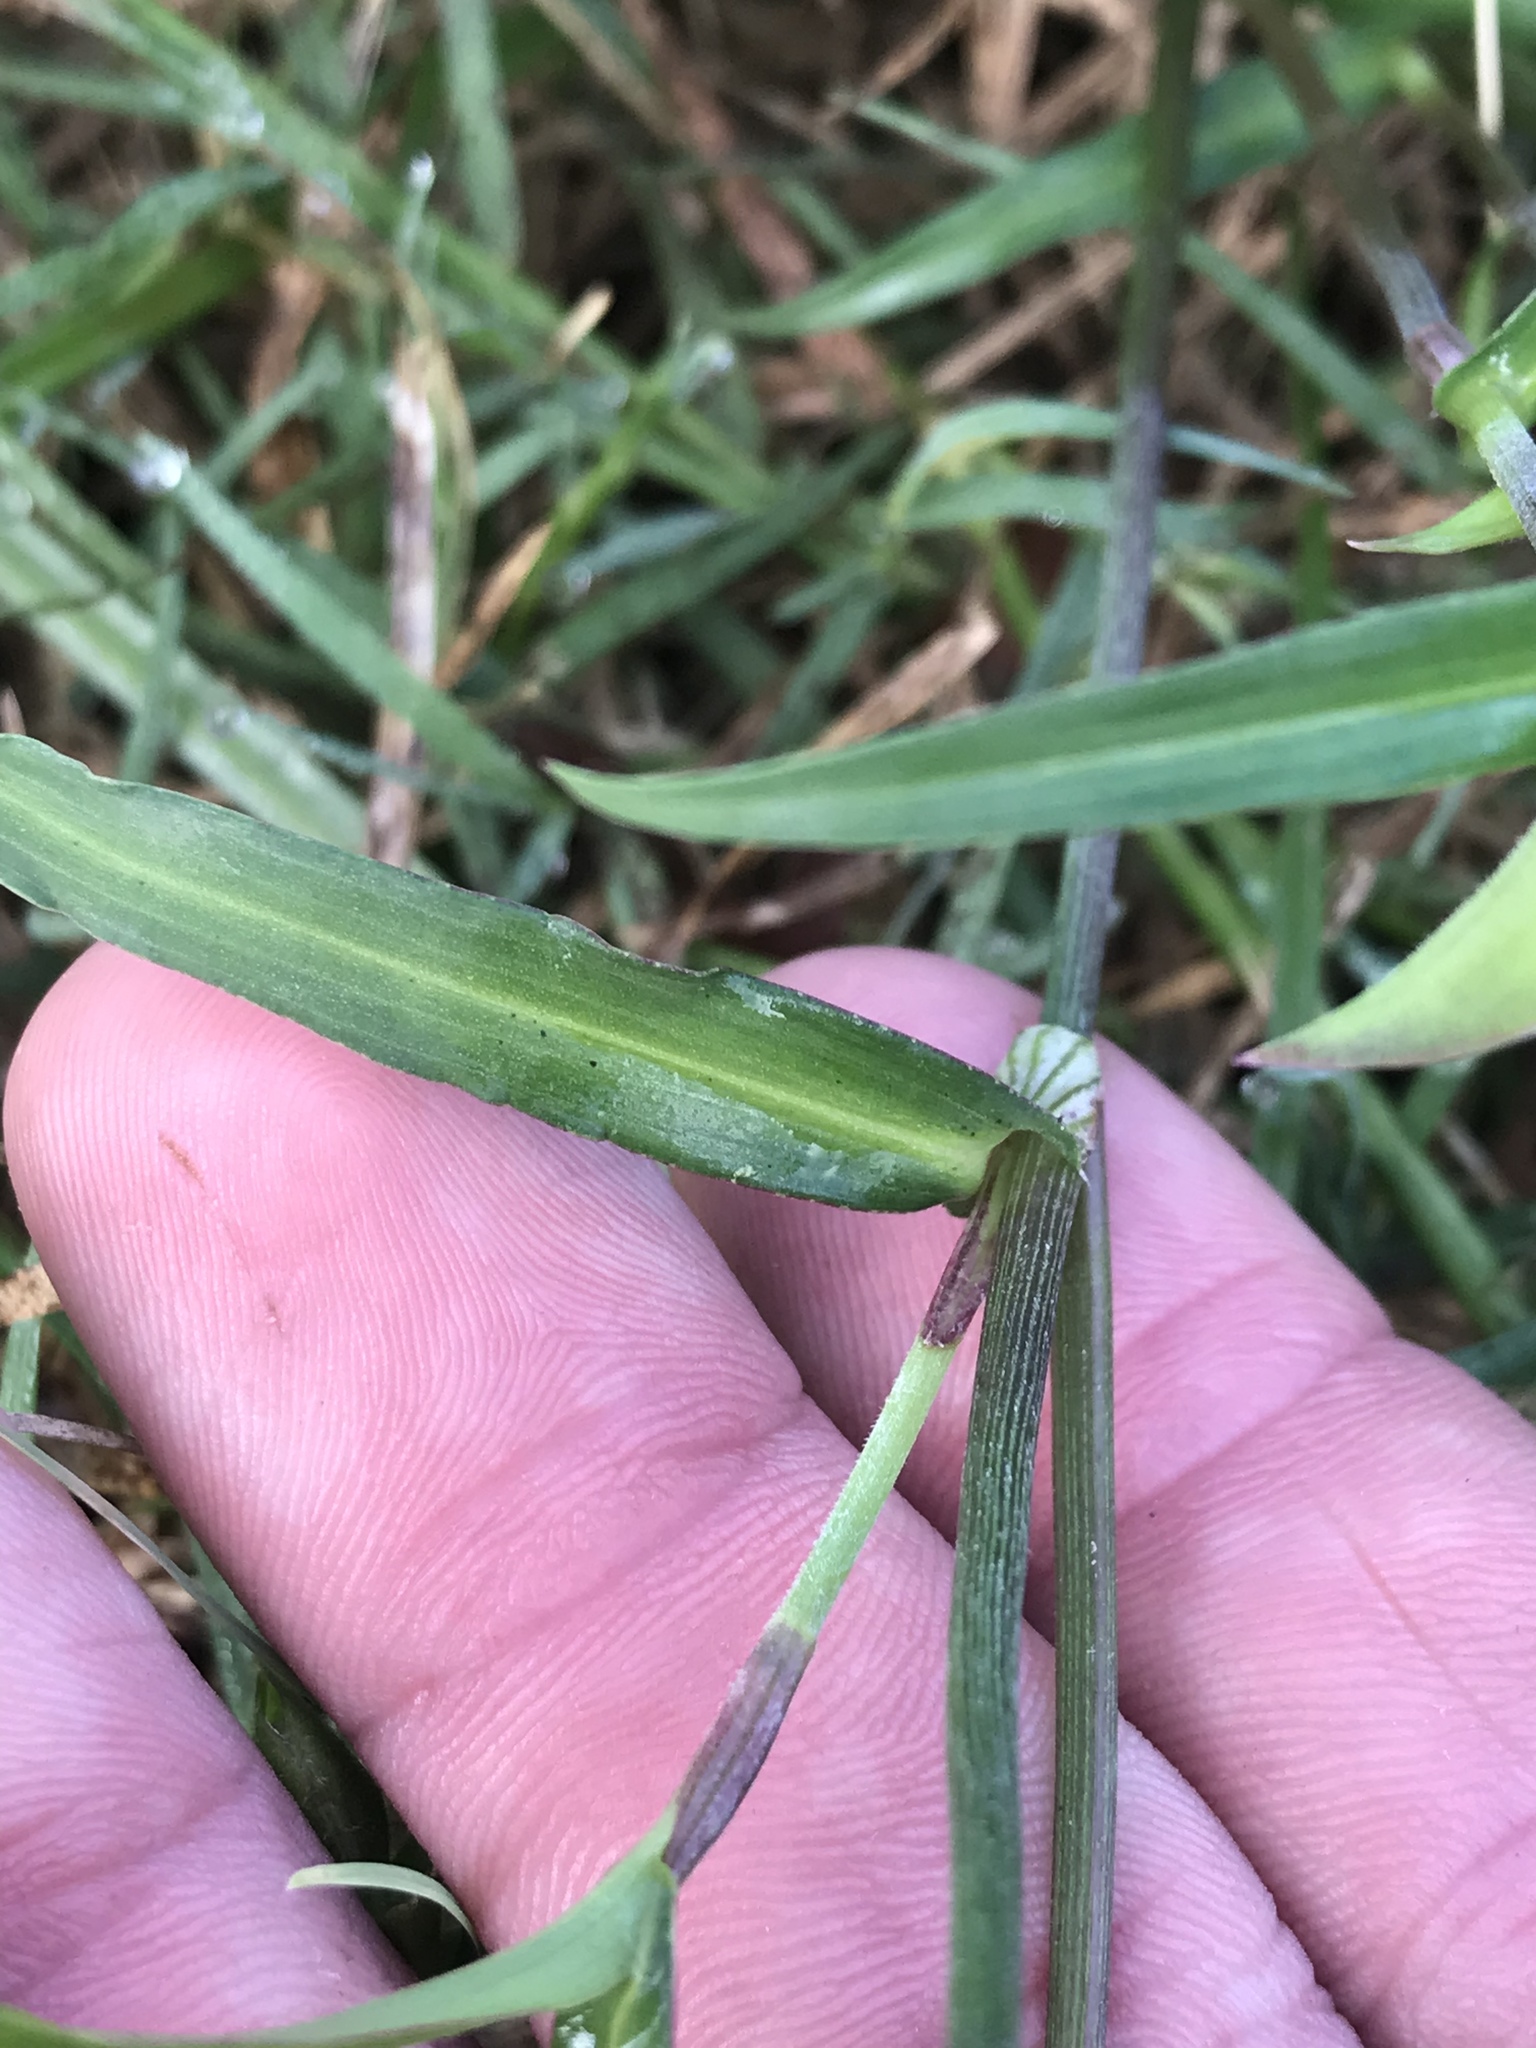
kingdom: Plantae
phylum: Tracheophyta
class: Liliopsida
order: Commelinales
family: Commelinaceae
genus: Commelina
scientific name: Commelina erecta
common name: Blousel blommetjie
